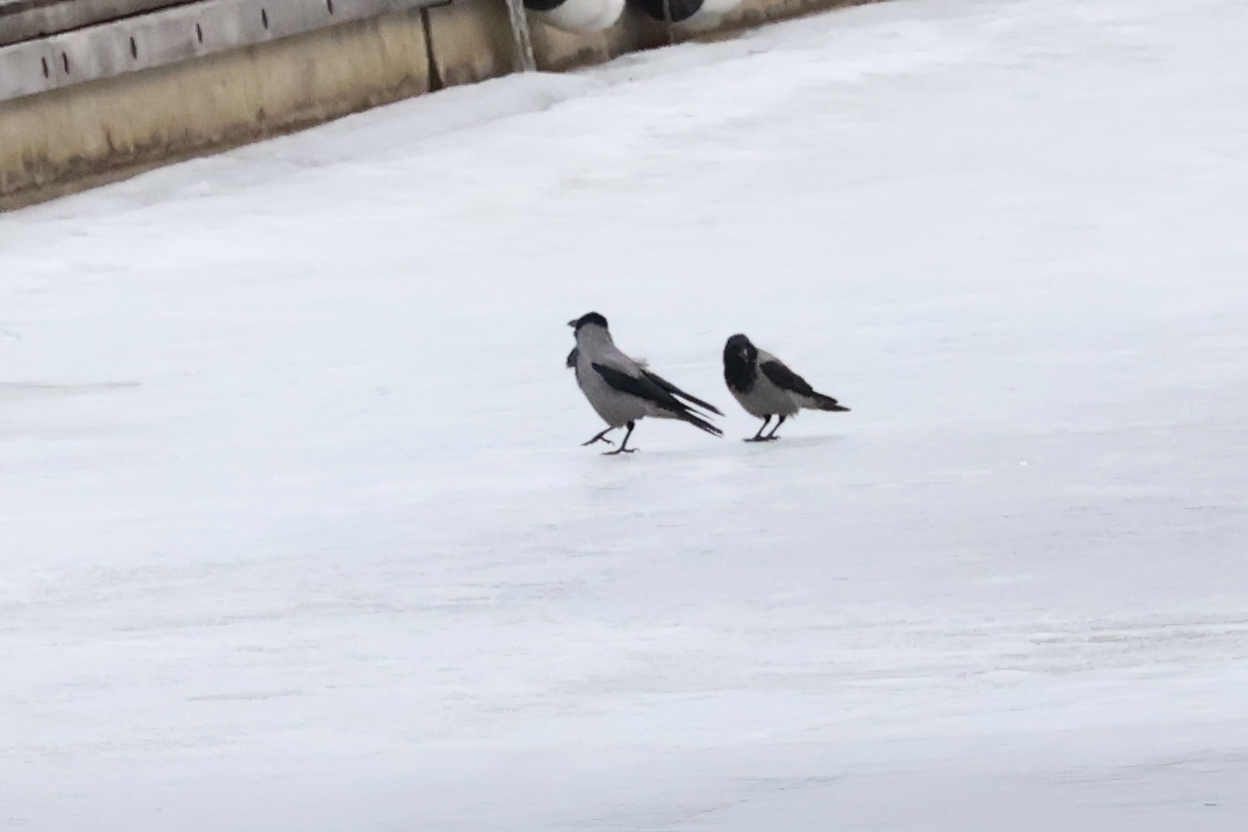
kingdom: Animalia
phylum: Chordata
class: Aves
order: Passeriformes
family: Corvidae
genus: Corvus
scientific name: Corvus cornix
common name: Hooded crow
